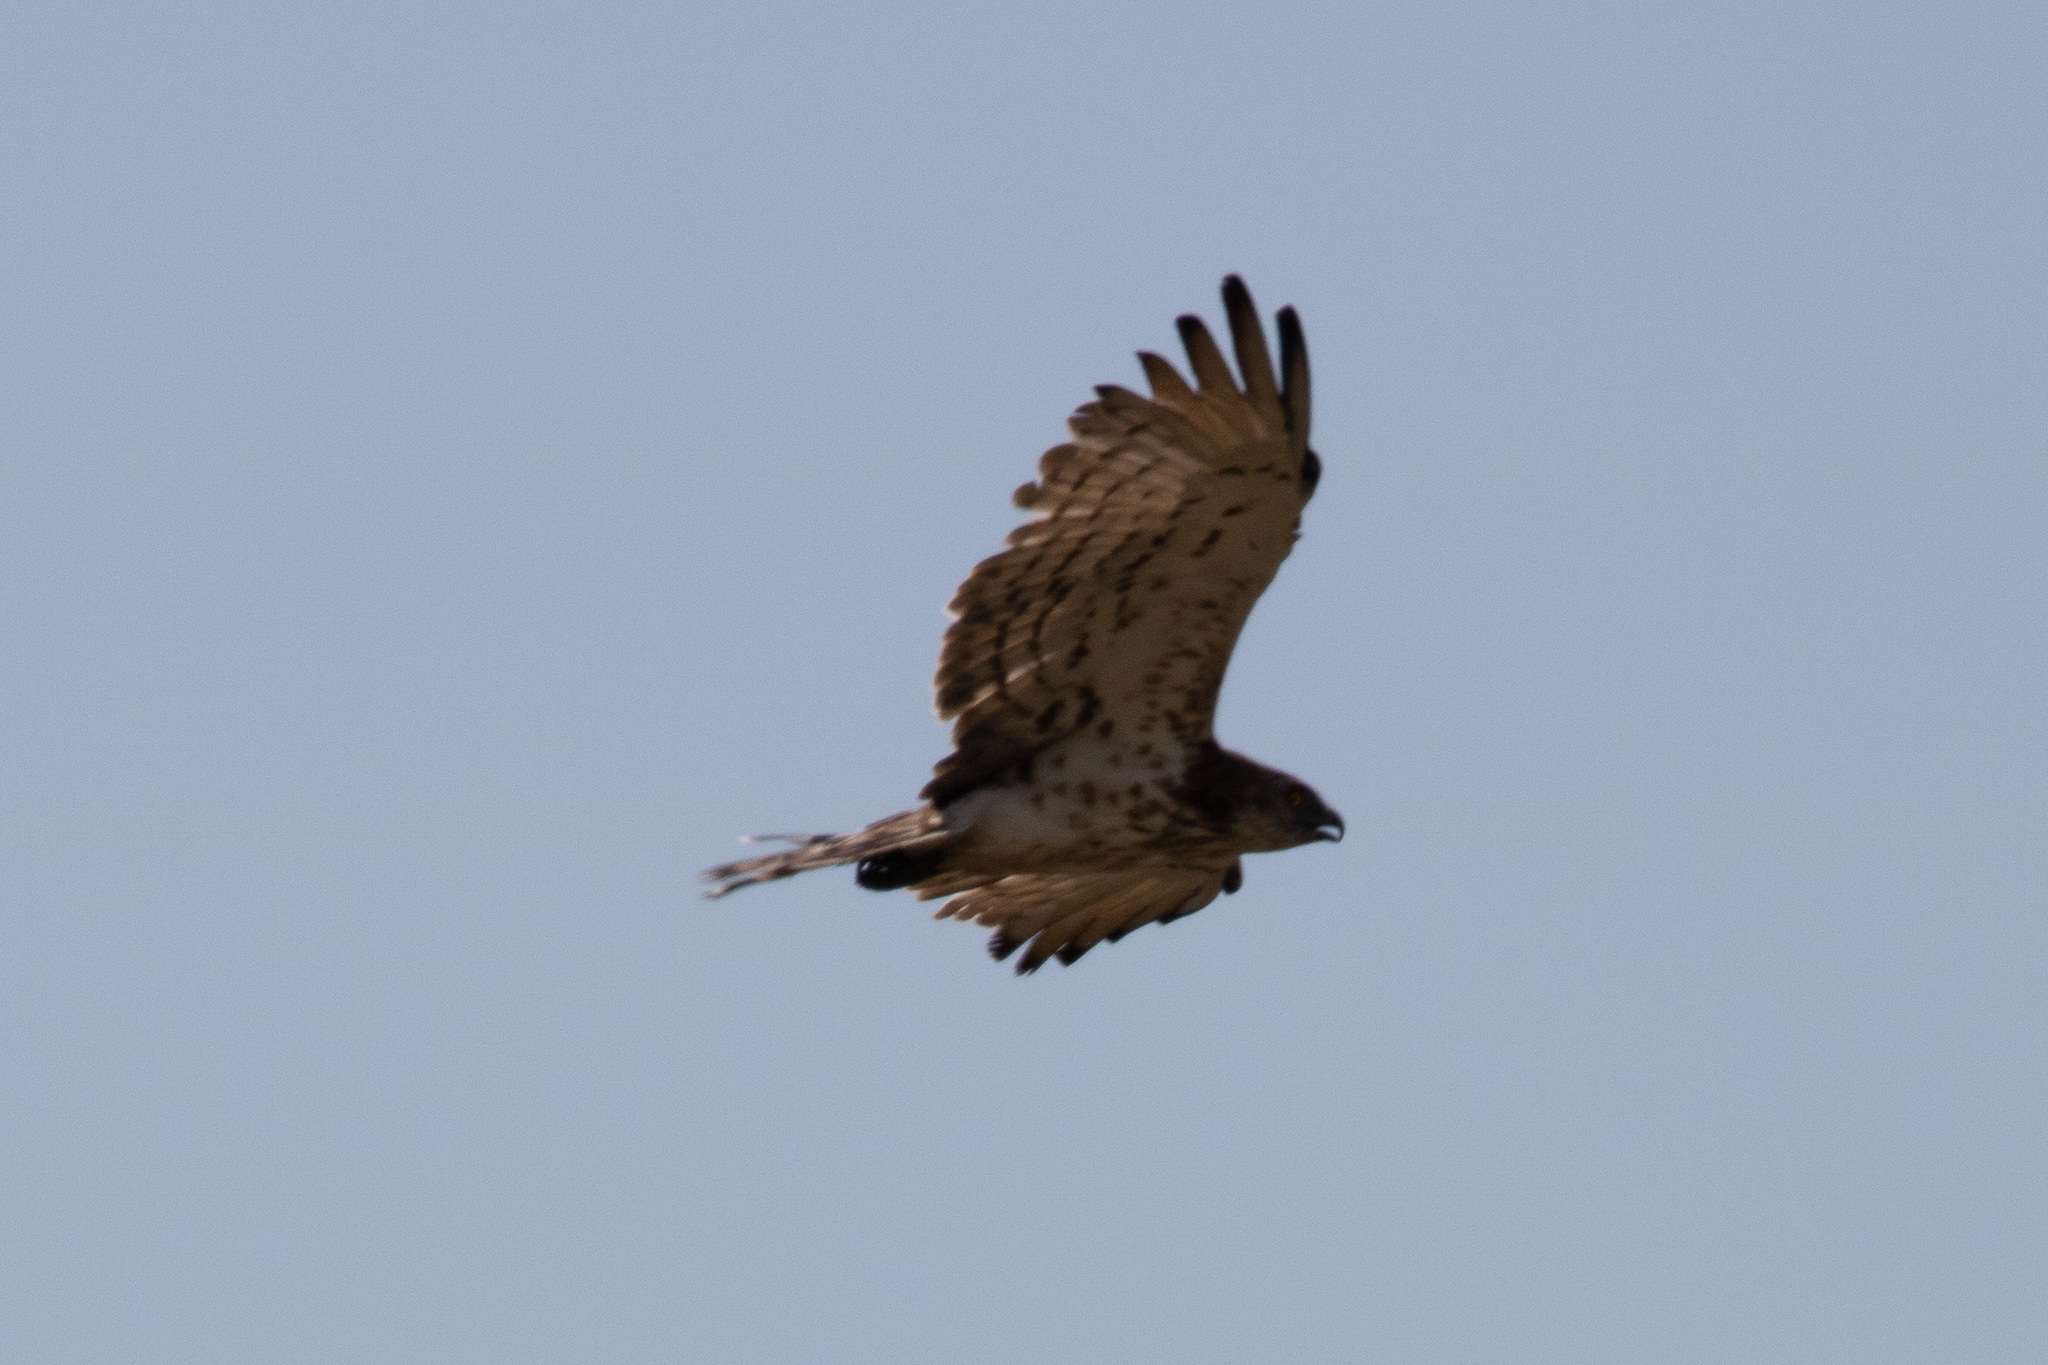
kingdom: Animalia
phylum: Chordata
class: Aves
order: Accipitriformes
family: Accipitridae
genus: Circaetus
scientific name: Circaetus gallicus
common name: Short-toed snake eagle
